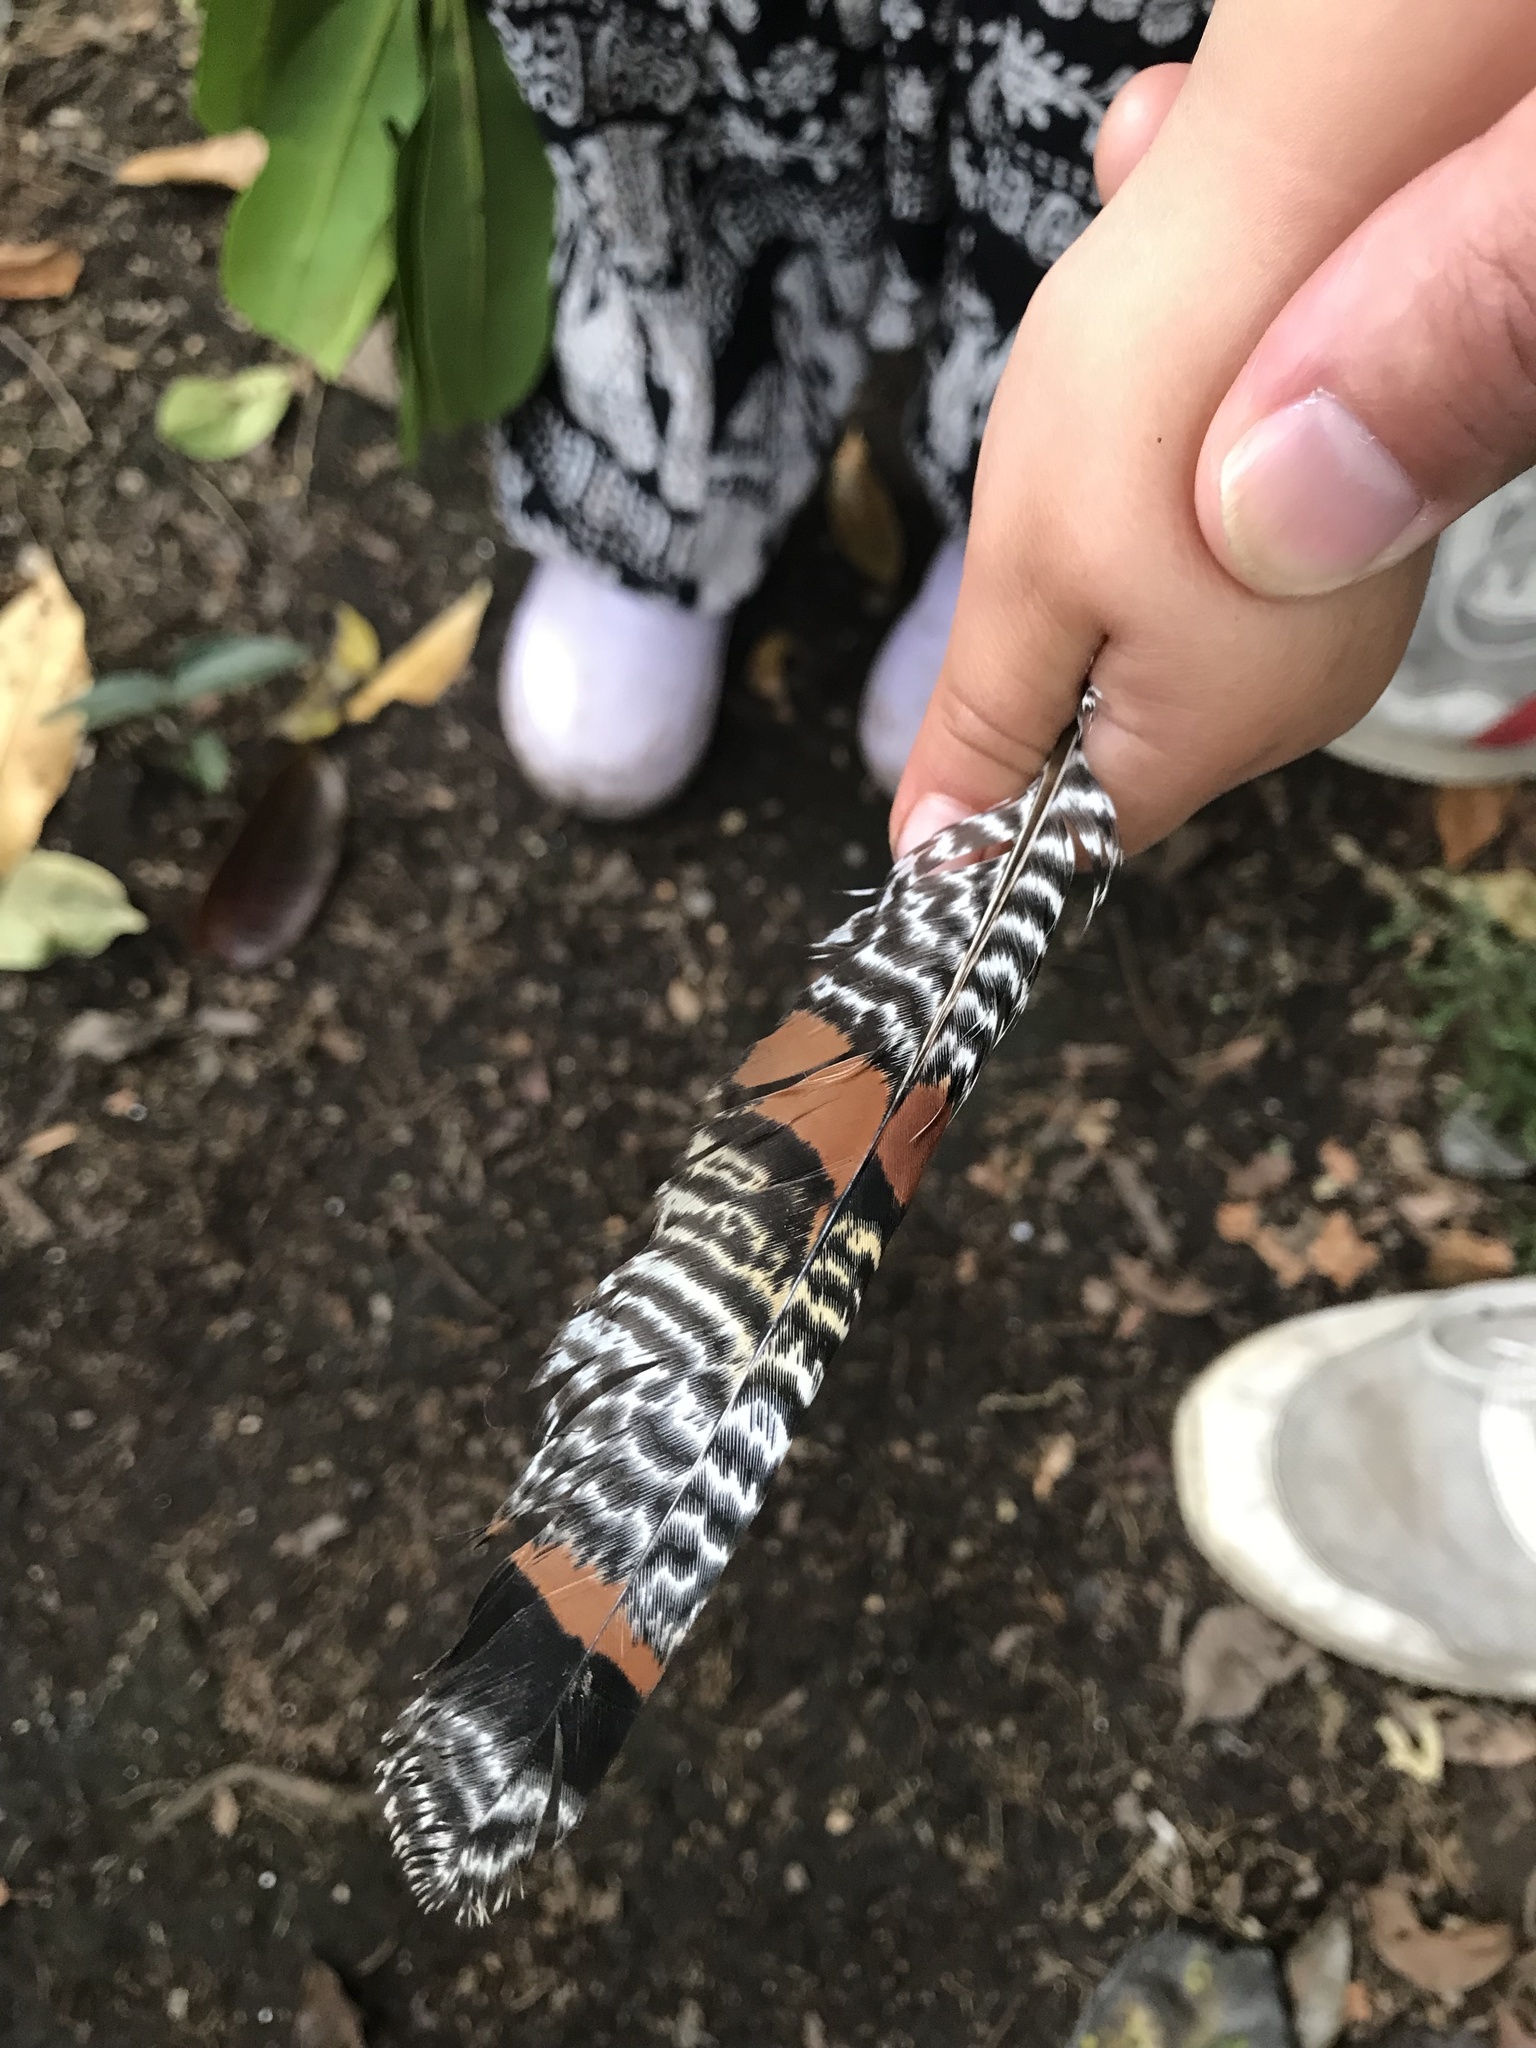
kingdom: Animalia
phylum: Chordata
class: Aves
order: Eurypygiformes
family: Eurypygidae
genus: Eurypyga
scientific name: Eurypyga helias
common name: Sunbittern
